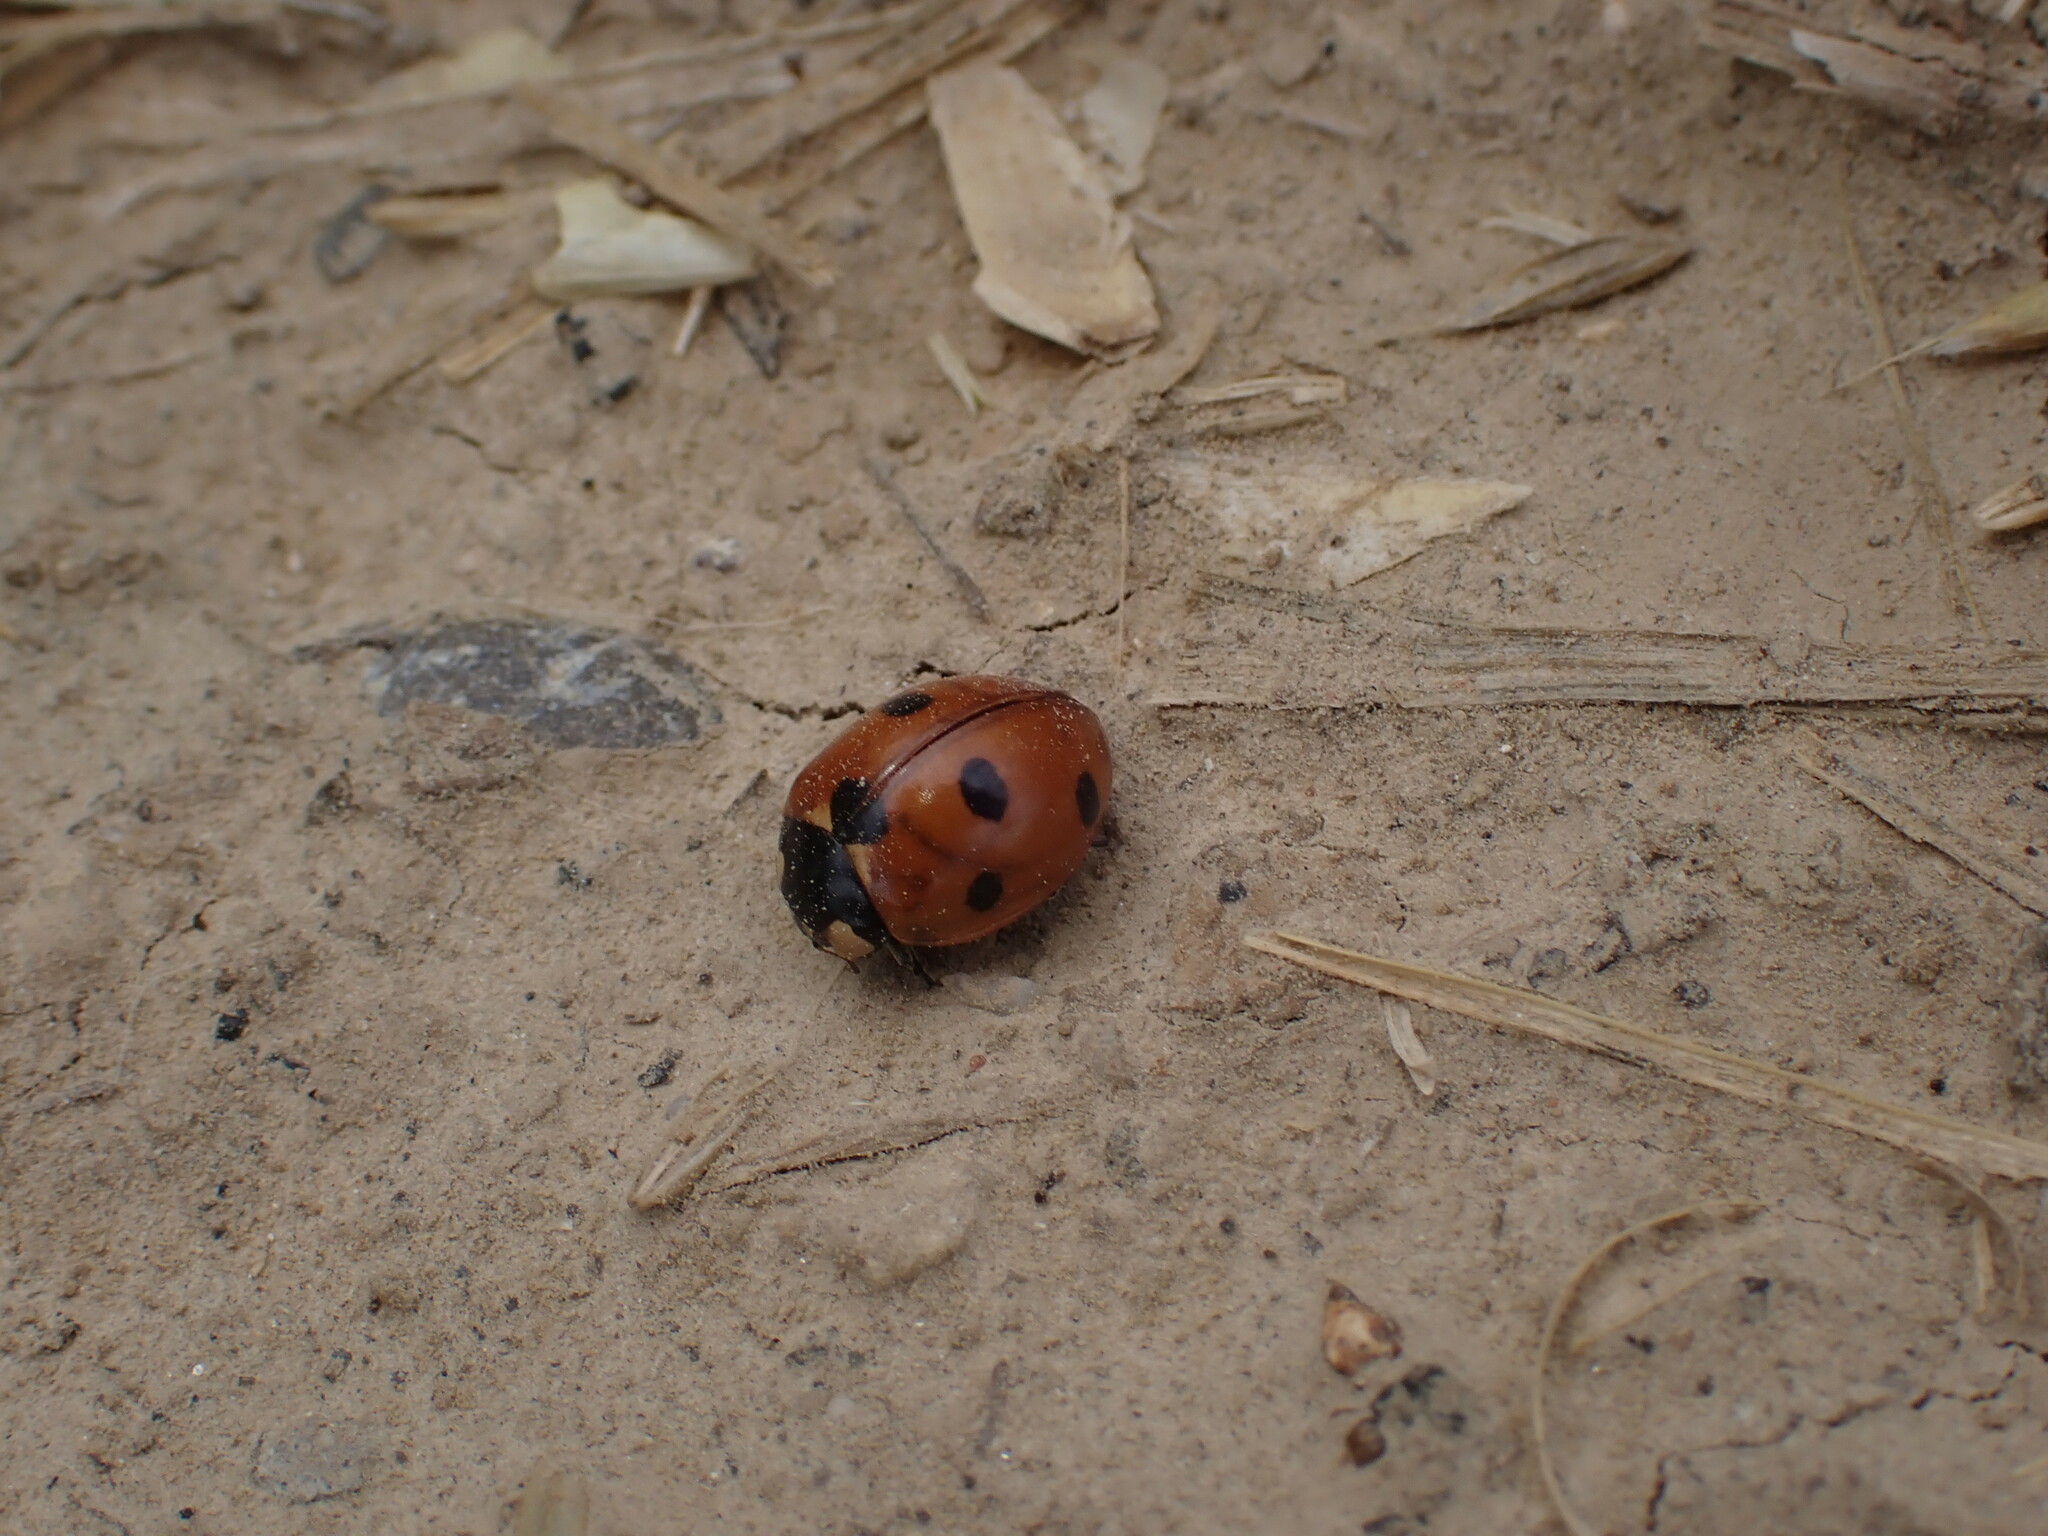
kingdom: Animalia
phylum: Arthropoda
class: Insecta
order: Coleoptera
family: Coccinellidae
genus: Coccinella
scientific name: Coccinella septempunctata
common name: Sevenspotted lady beetle
